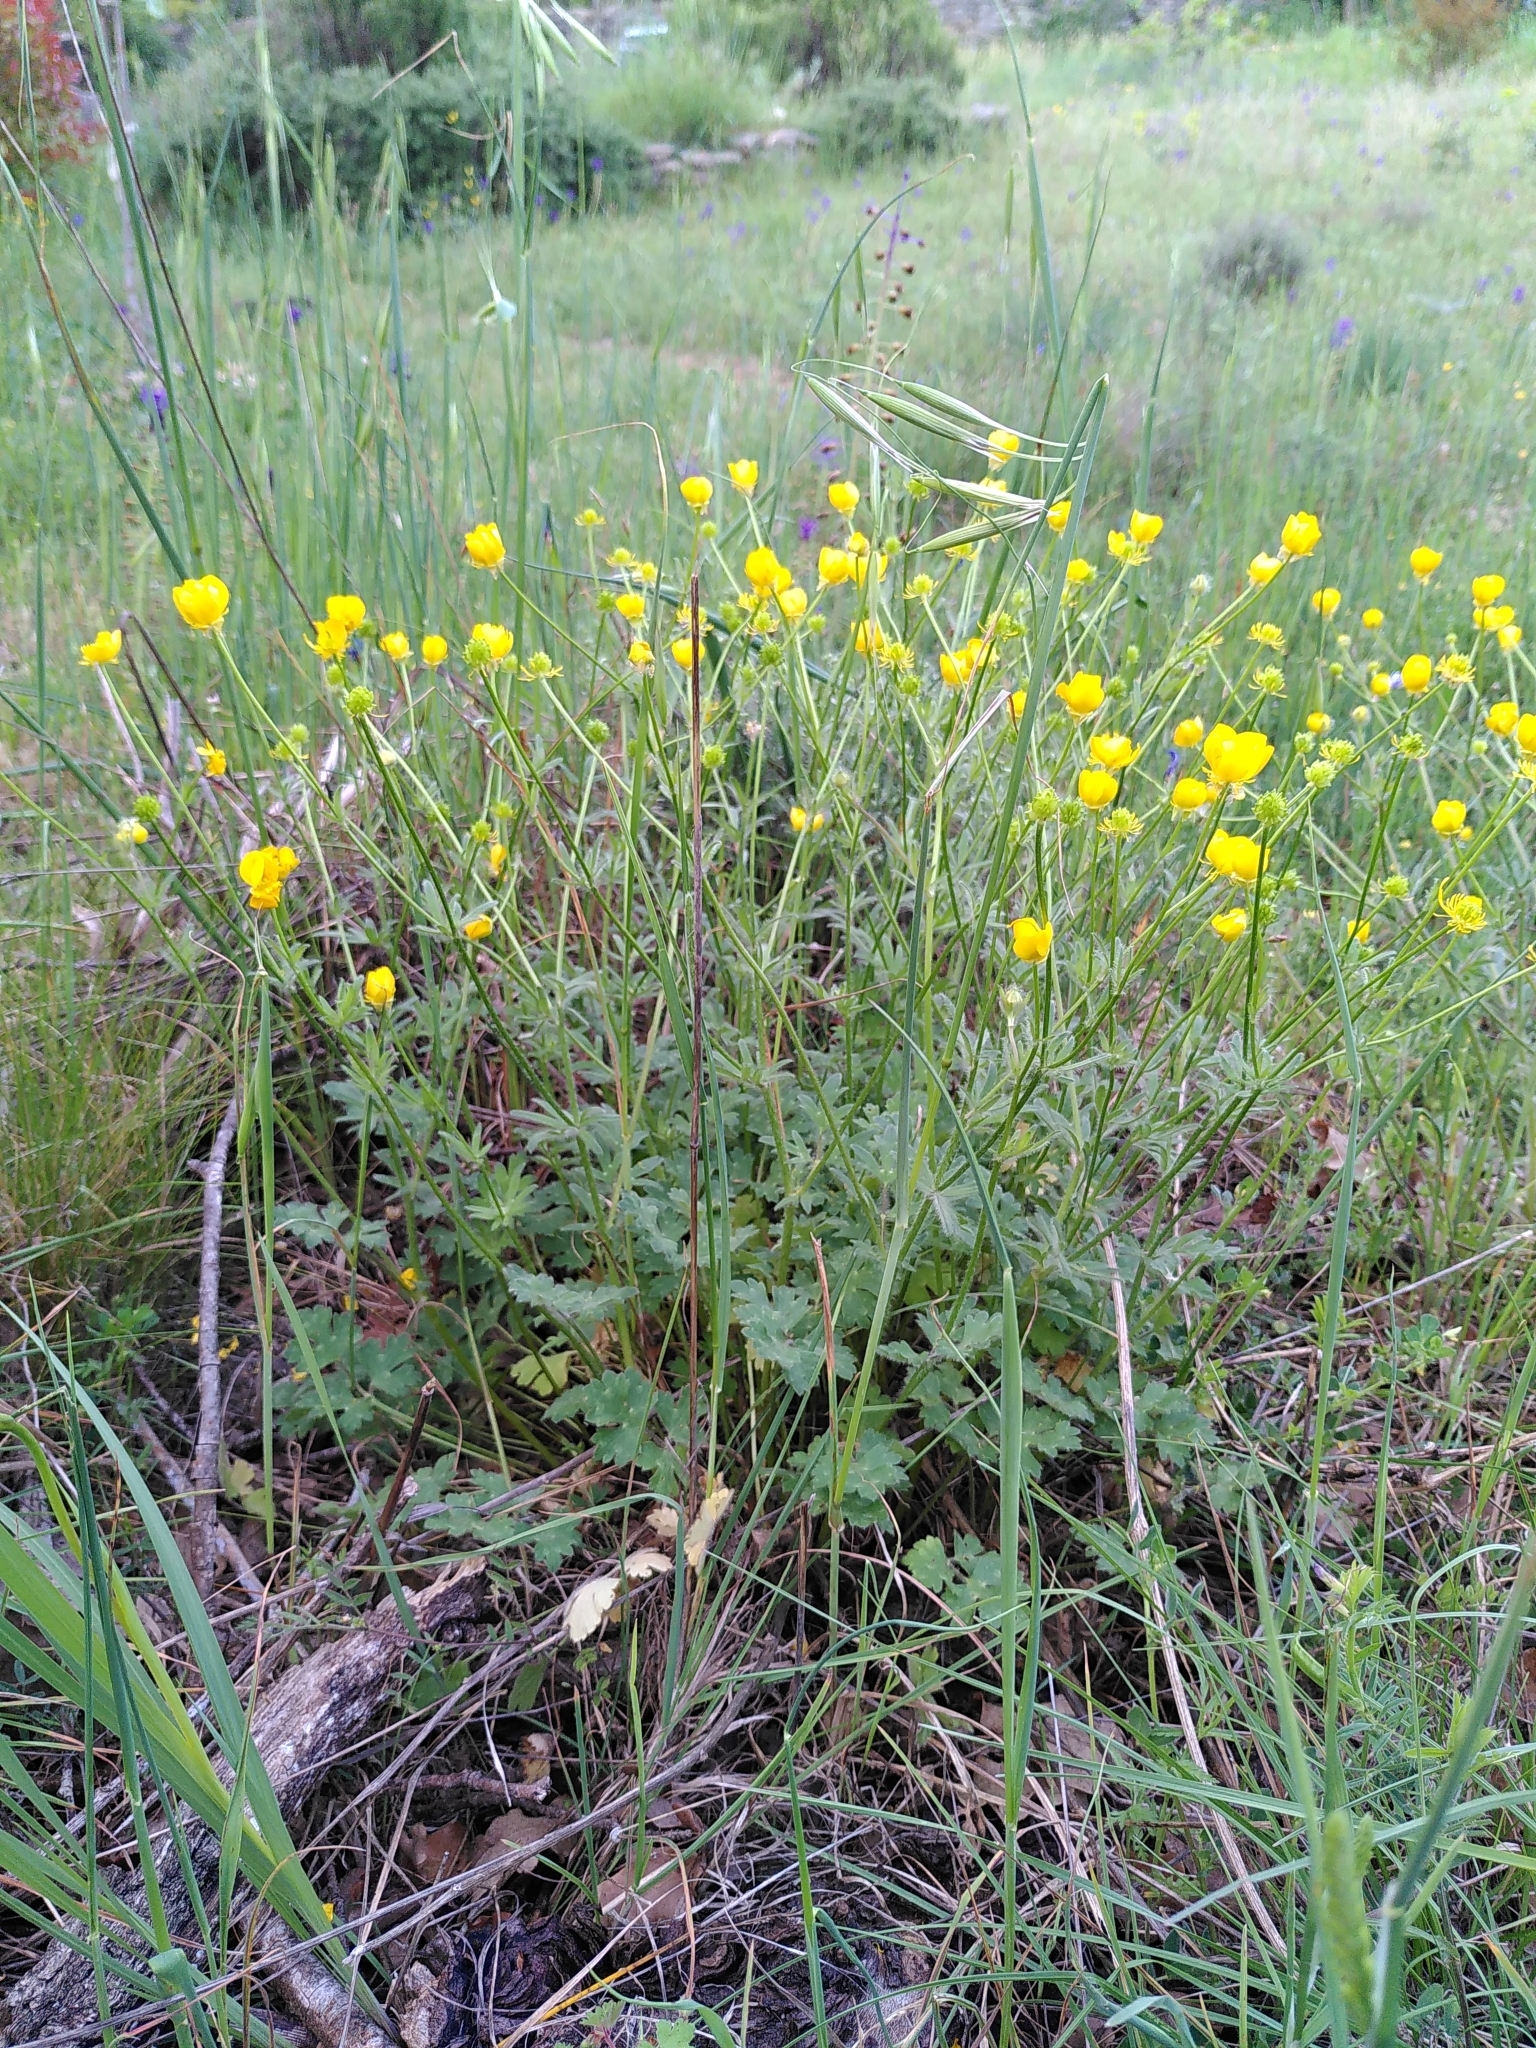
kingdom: Plantae
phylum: Tracheophyta
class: Magnoliopsida
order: Ranunculales
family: Ranunculaceae
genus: Ranunculus
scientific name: Ranunculus bulbosus
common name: Bulbous buttercup
